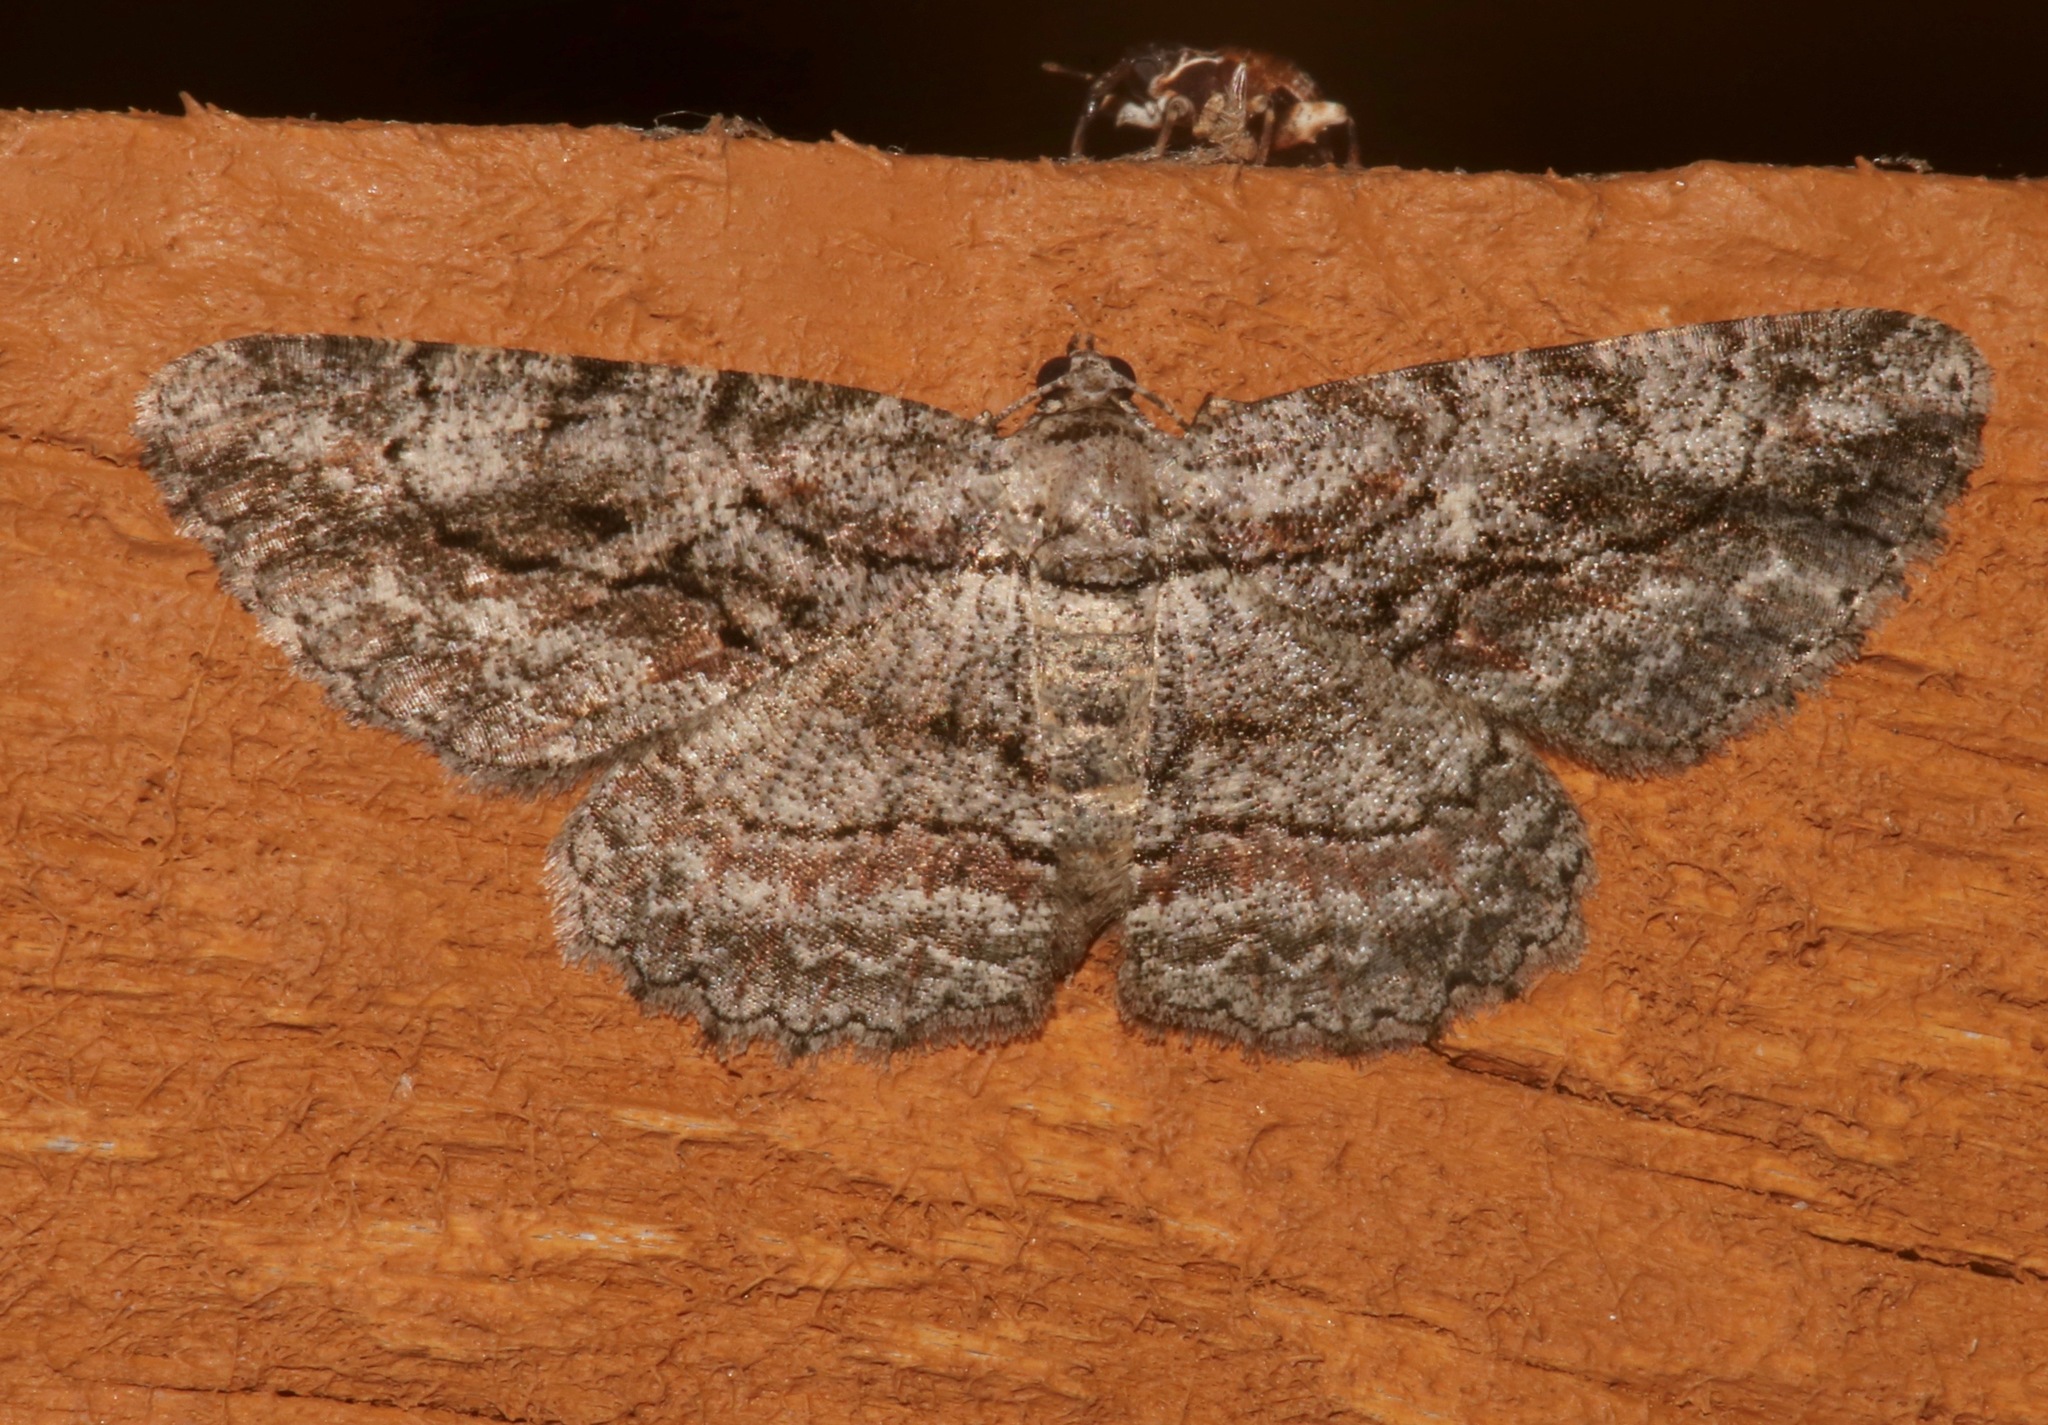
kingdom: Animalia
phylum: Arthropoda
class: Insecta
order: Lepidoptera
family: Geometridae
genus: Anavitrinella
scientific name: Anavitrinella pampinaria
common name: Common gray
